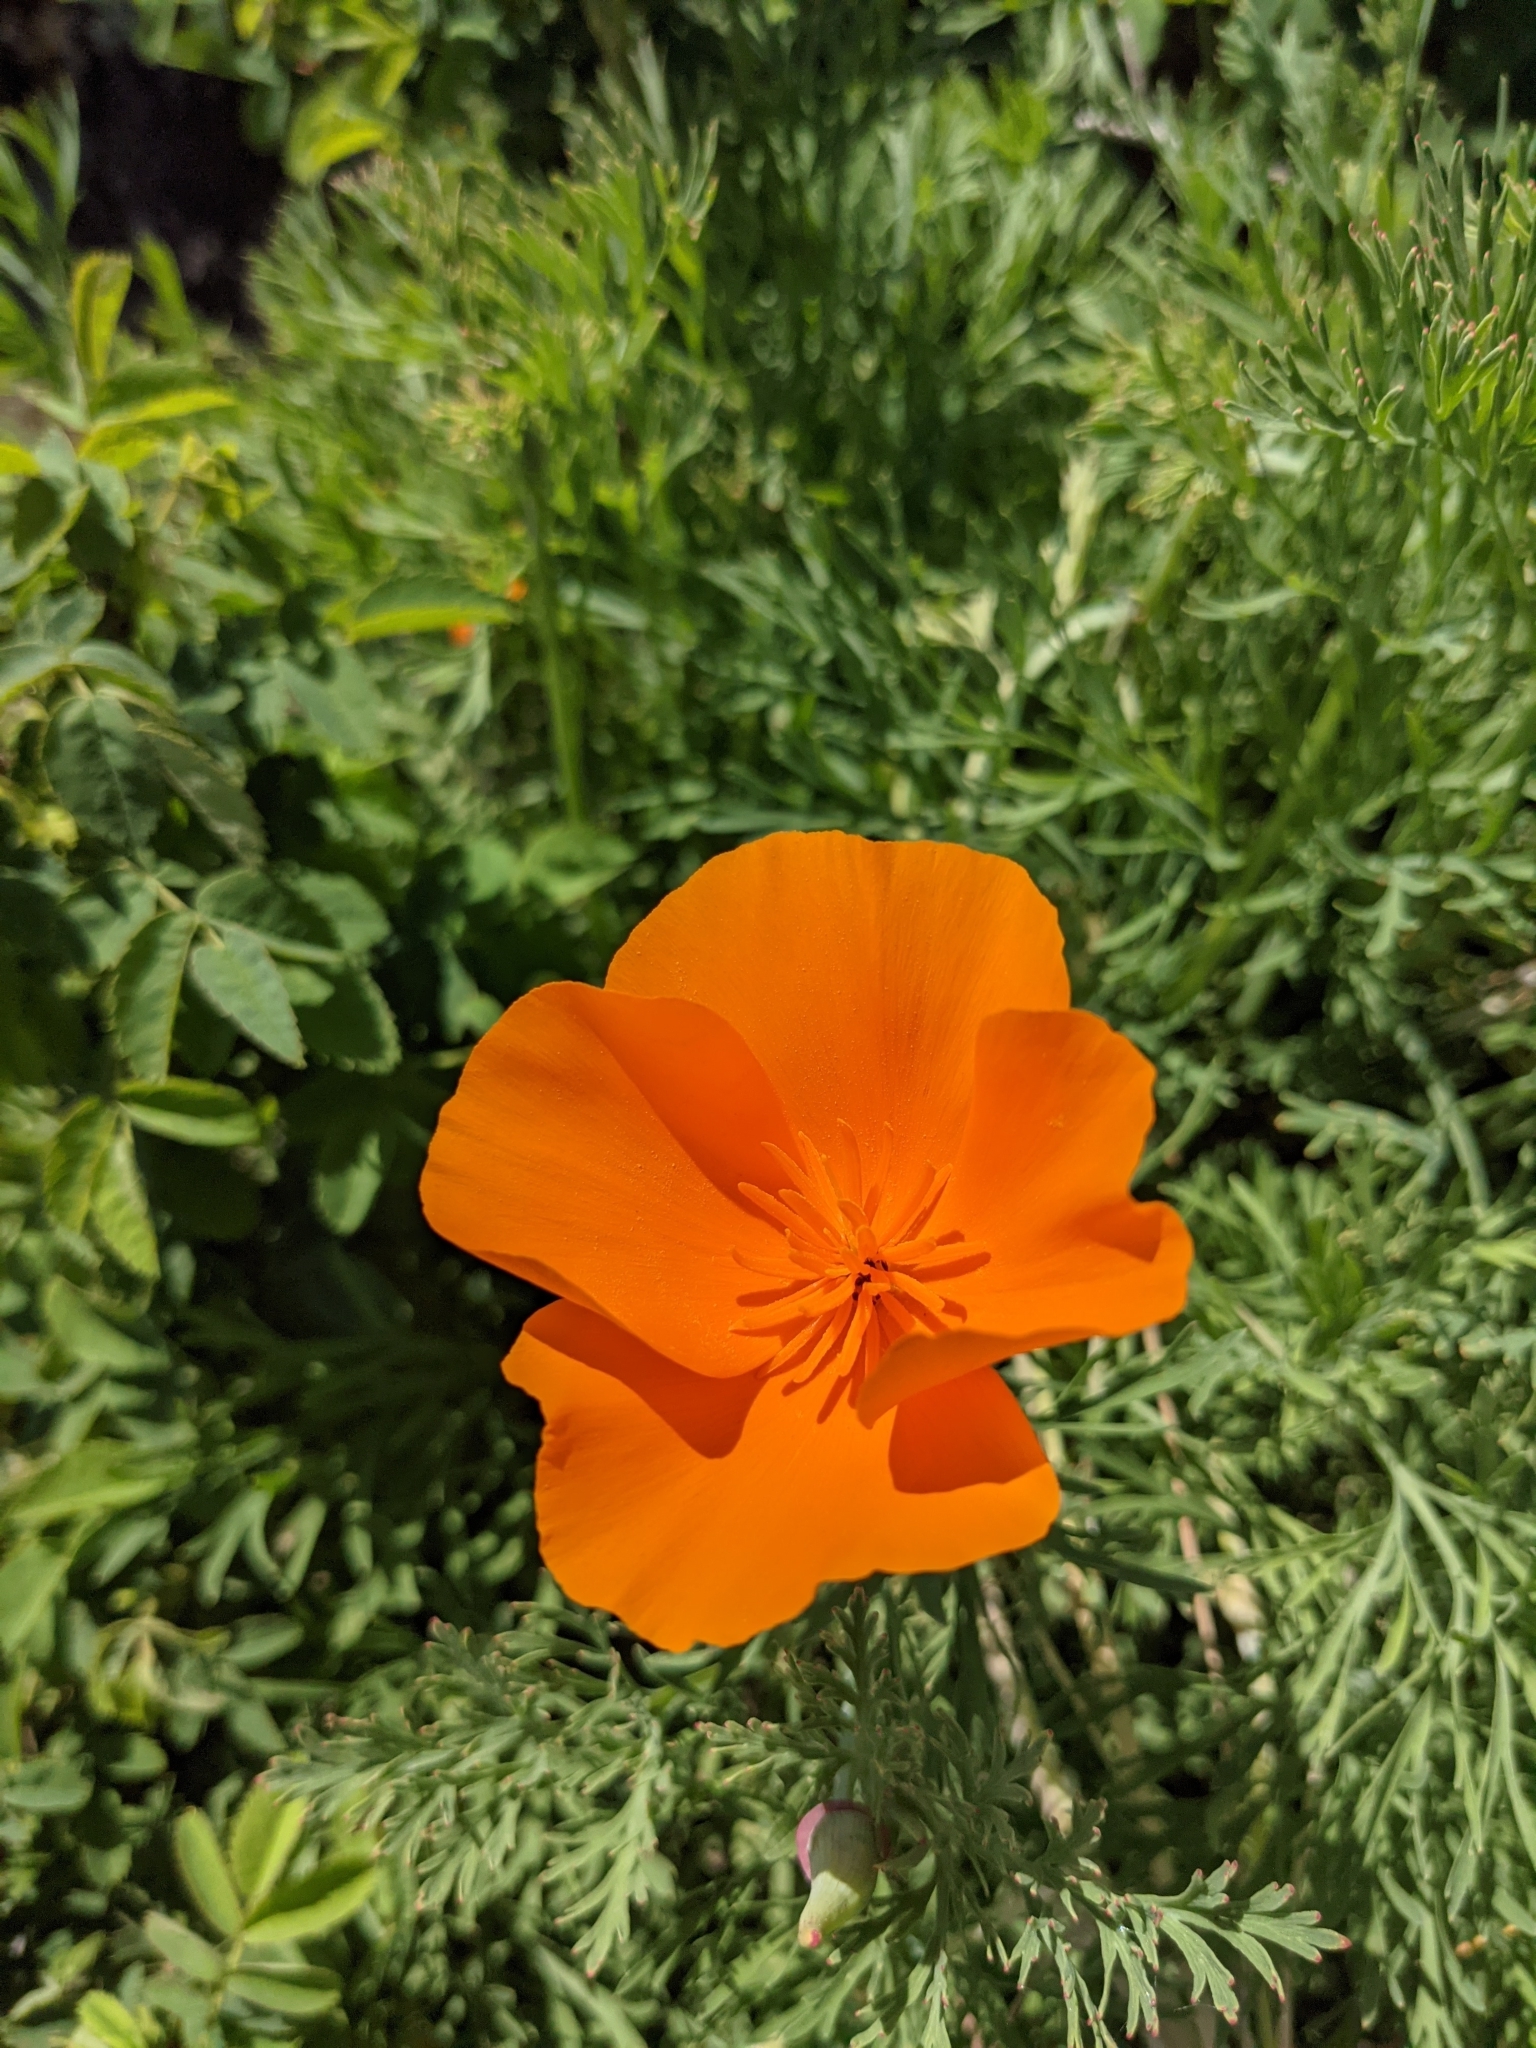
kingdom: Plantae
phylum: Tracheophyta
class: Magnoliopsida
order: Ranunculales
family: Papaveraceae
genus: Eschscholzia
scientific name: Eschscholzia californica
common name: California poppy
